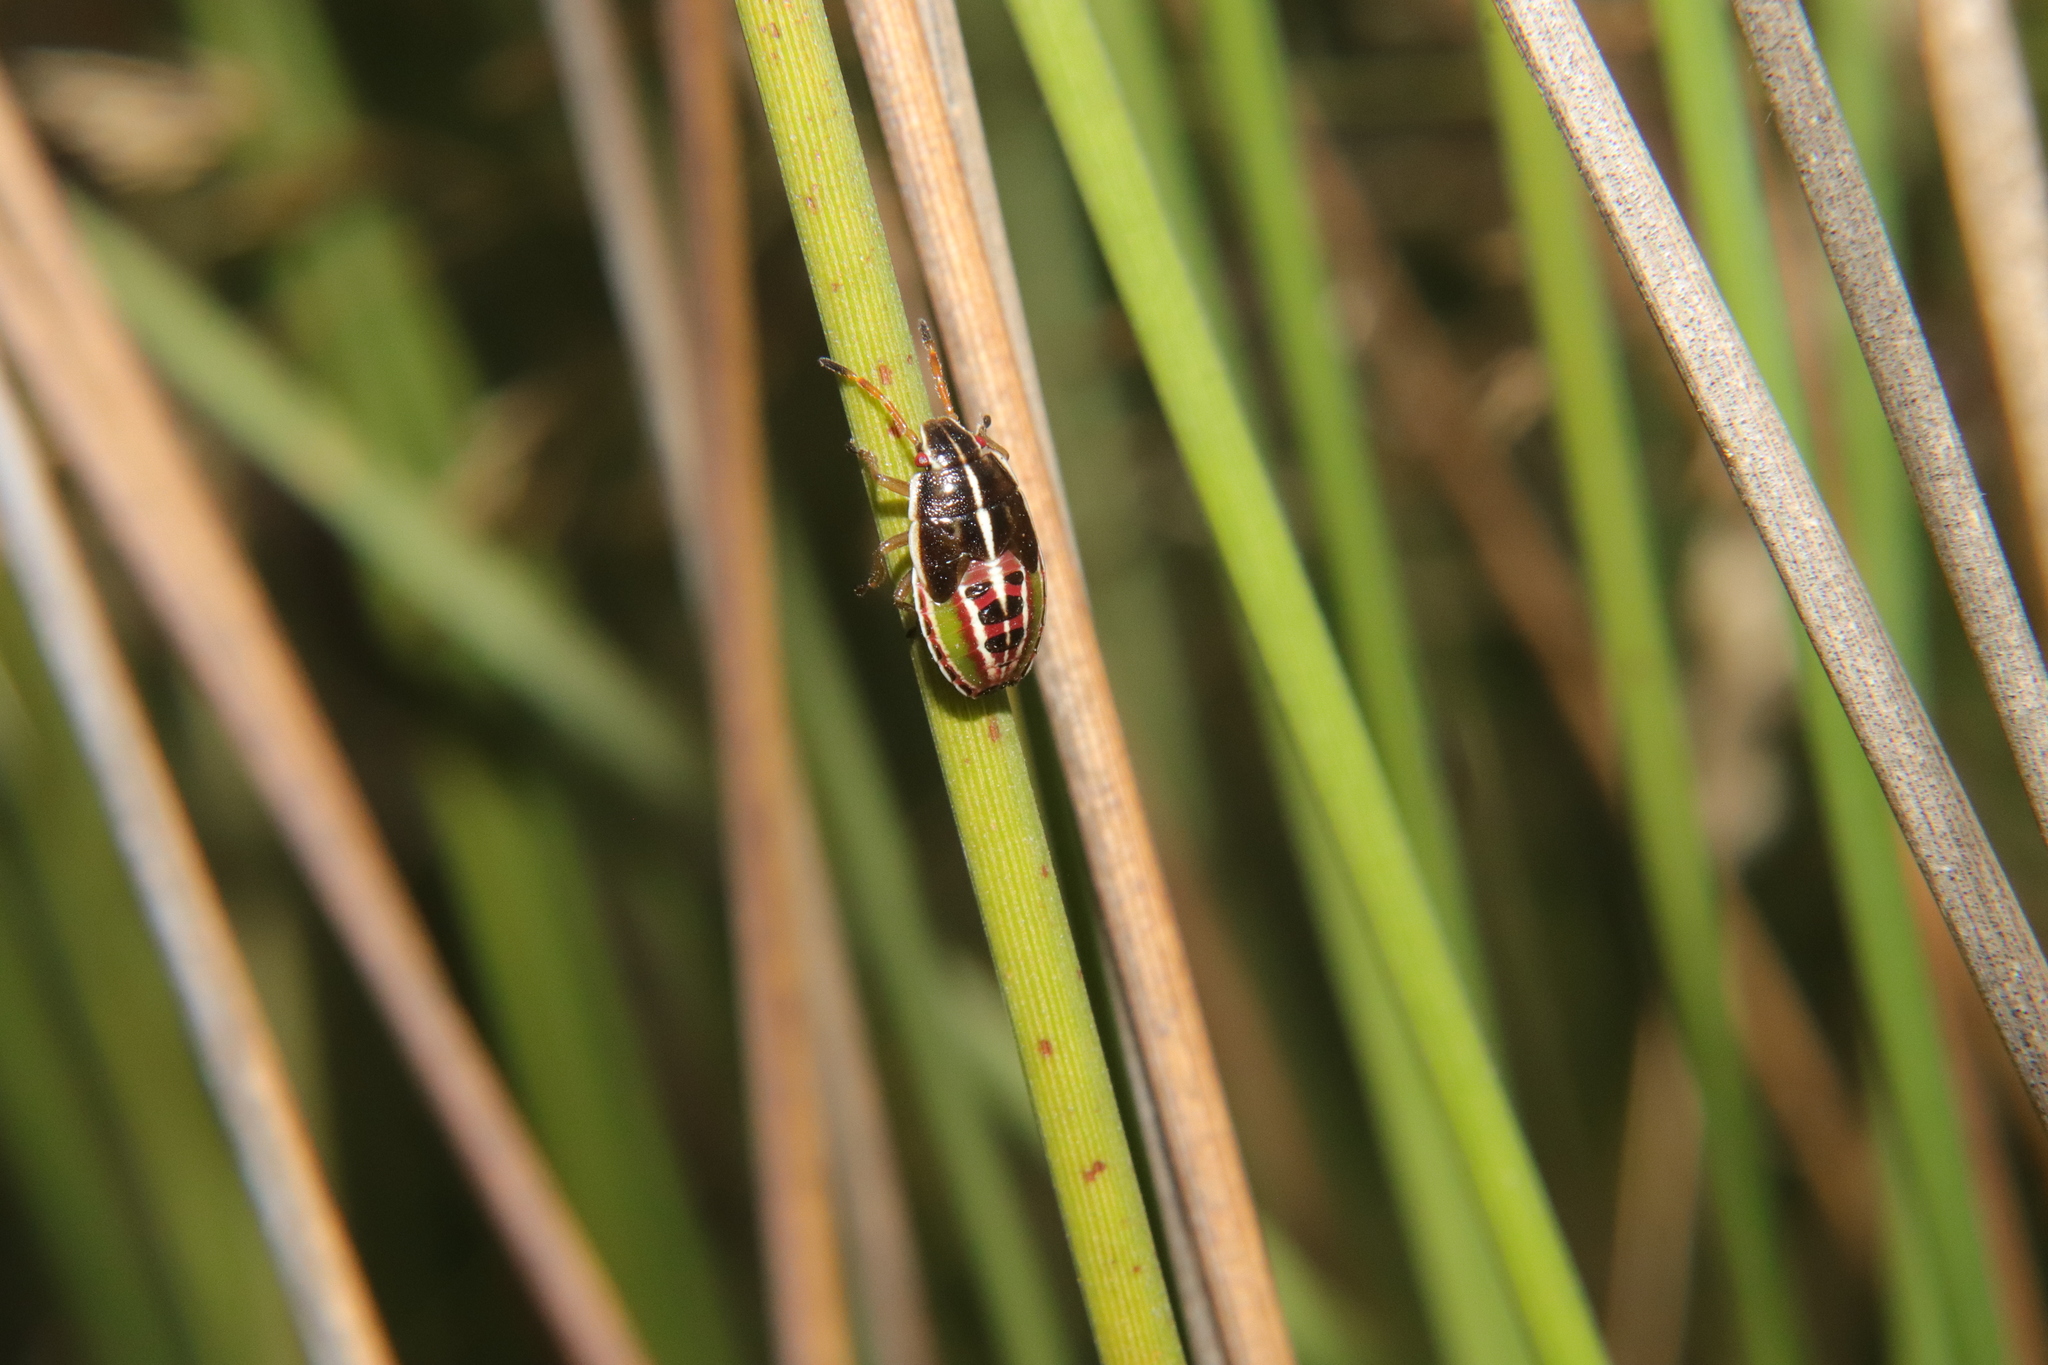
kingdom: Animalia
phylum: Arthropoda
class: Insecta
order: Hemiptera
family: Acanthosomatidae
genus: Rhopalimorpha
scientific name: Rhopalimorpha lineolaris
